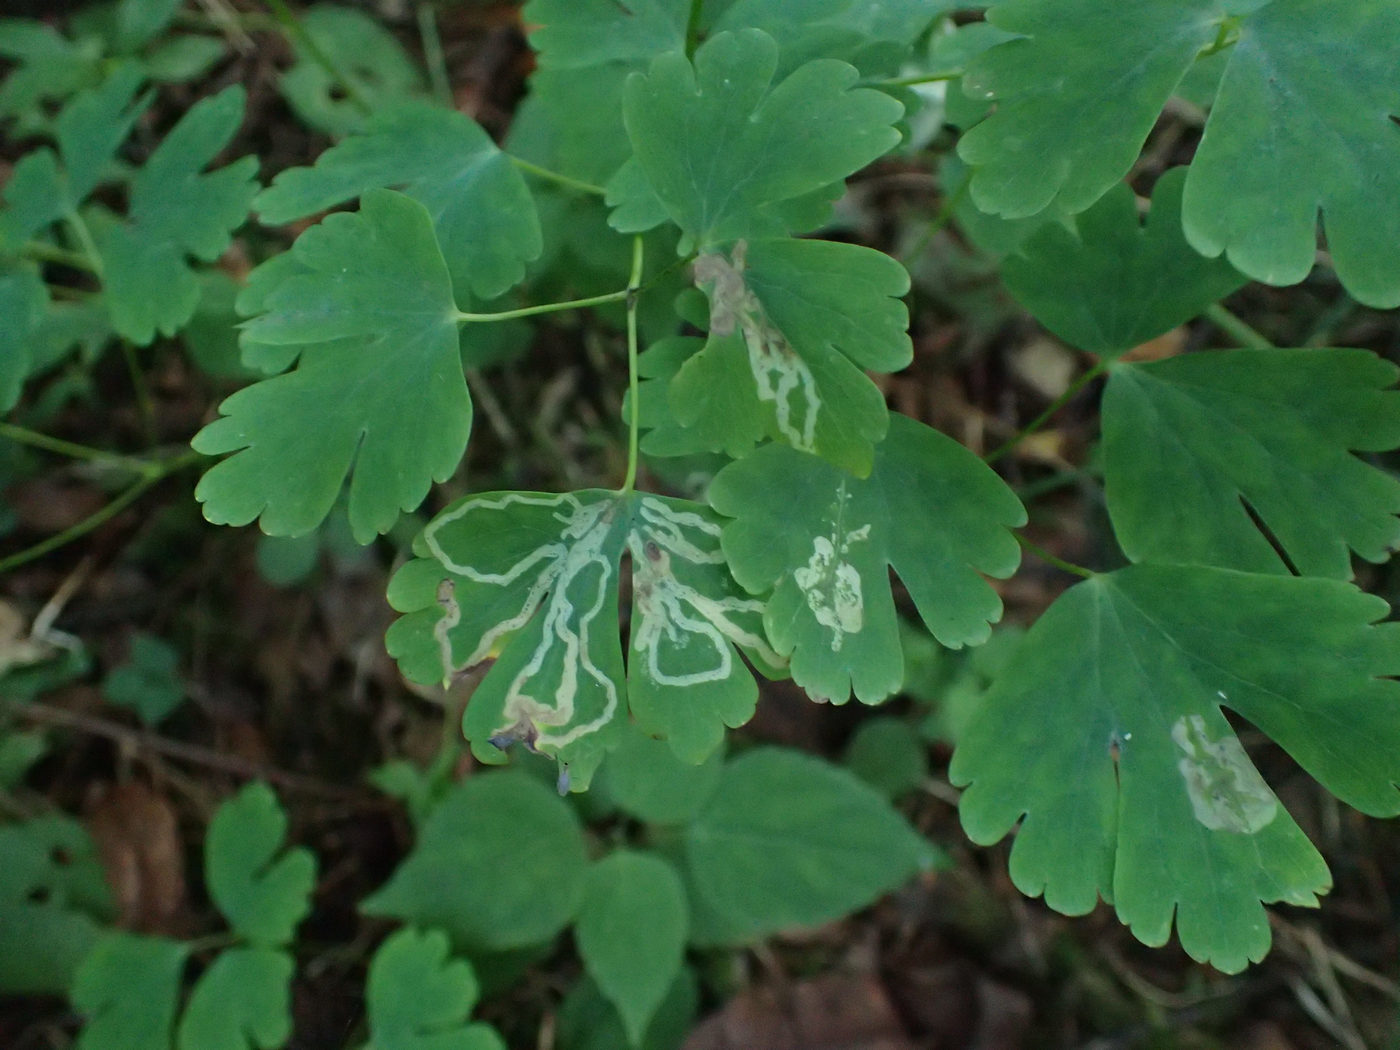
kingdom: Animalia
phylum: Arthropoda
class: Insecta
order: Diptera
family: Agromyzidae
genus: Phytomyza
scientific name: Phytomyza
